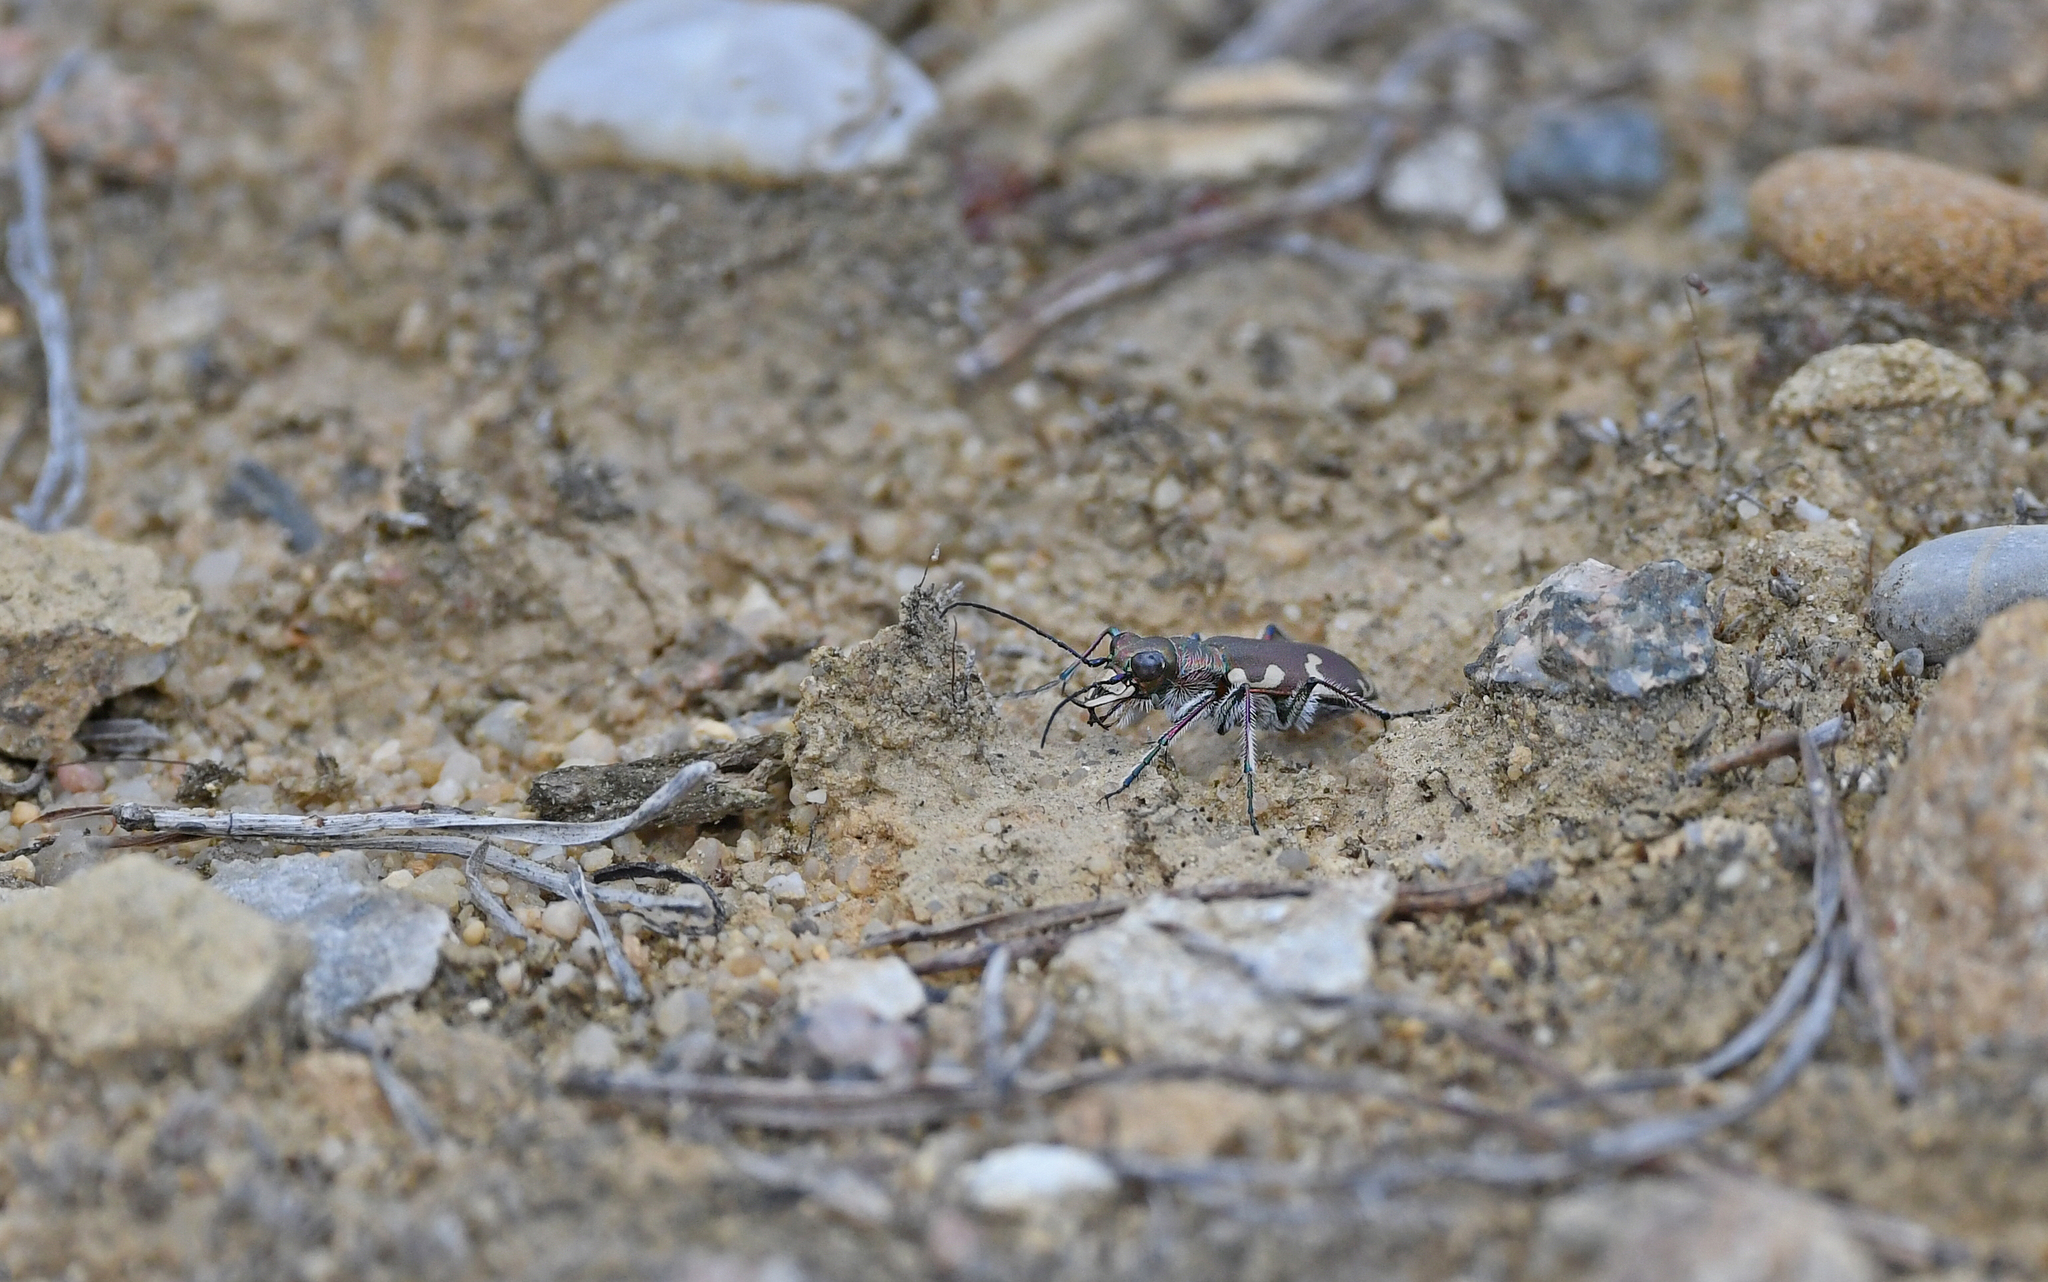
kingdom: Animalia
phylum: Arthropoda
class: Insecta
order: Coleoptera
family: Carabidae
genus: Cicindela
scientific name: Cicindela hybrida
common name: Northern dune tiger beetle
